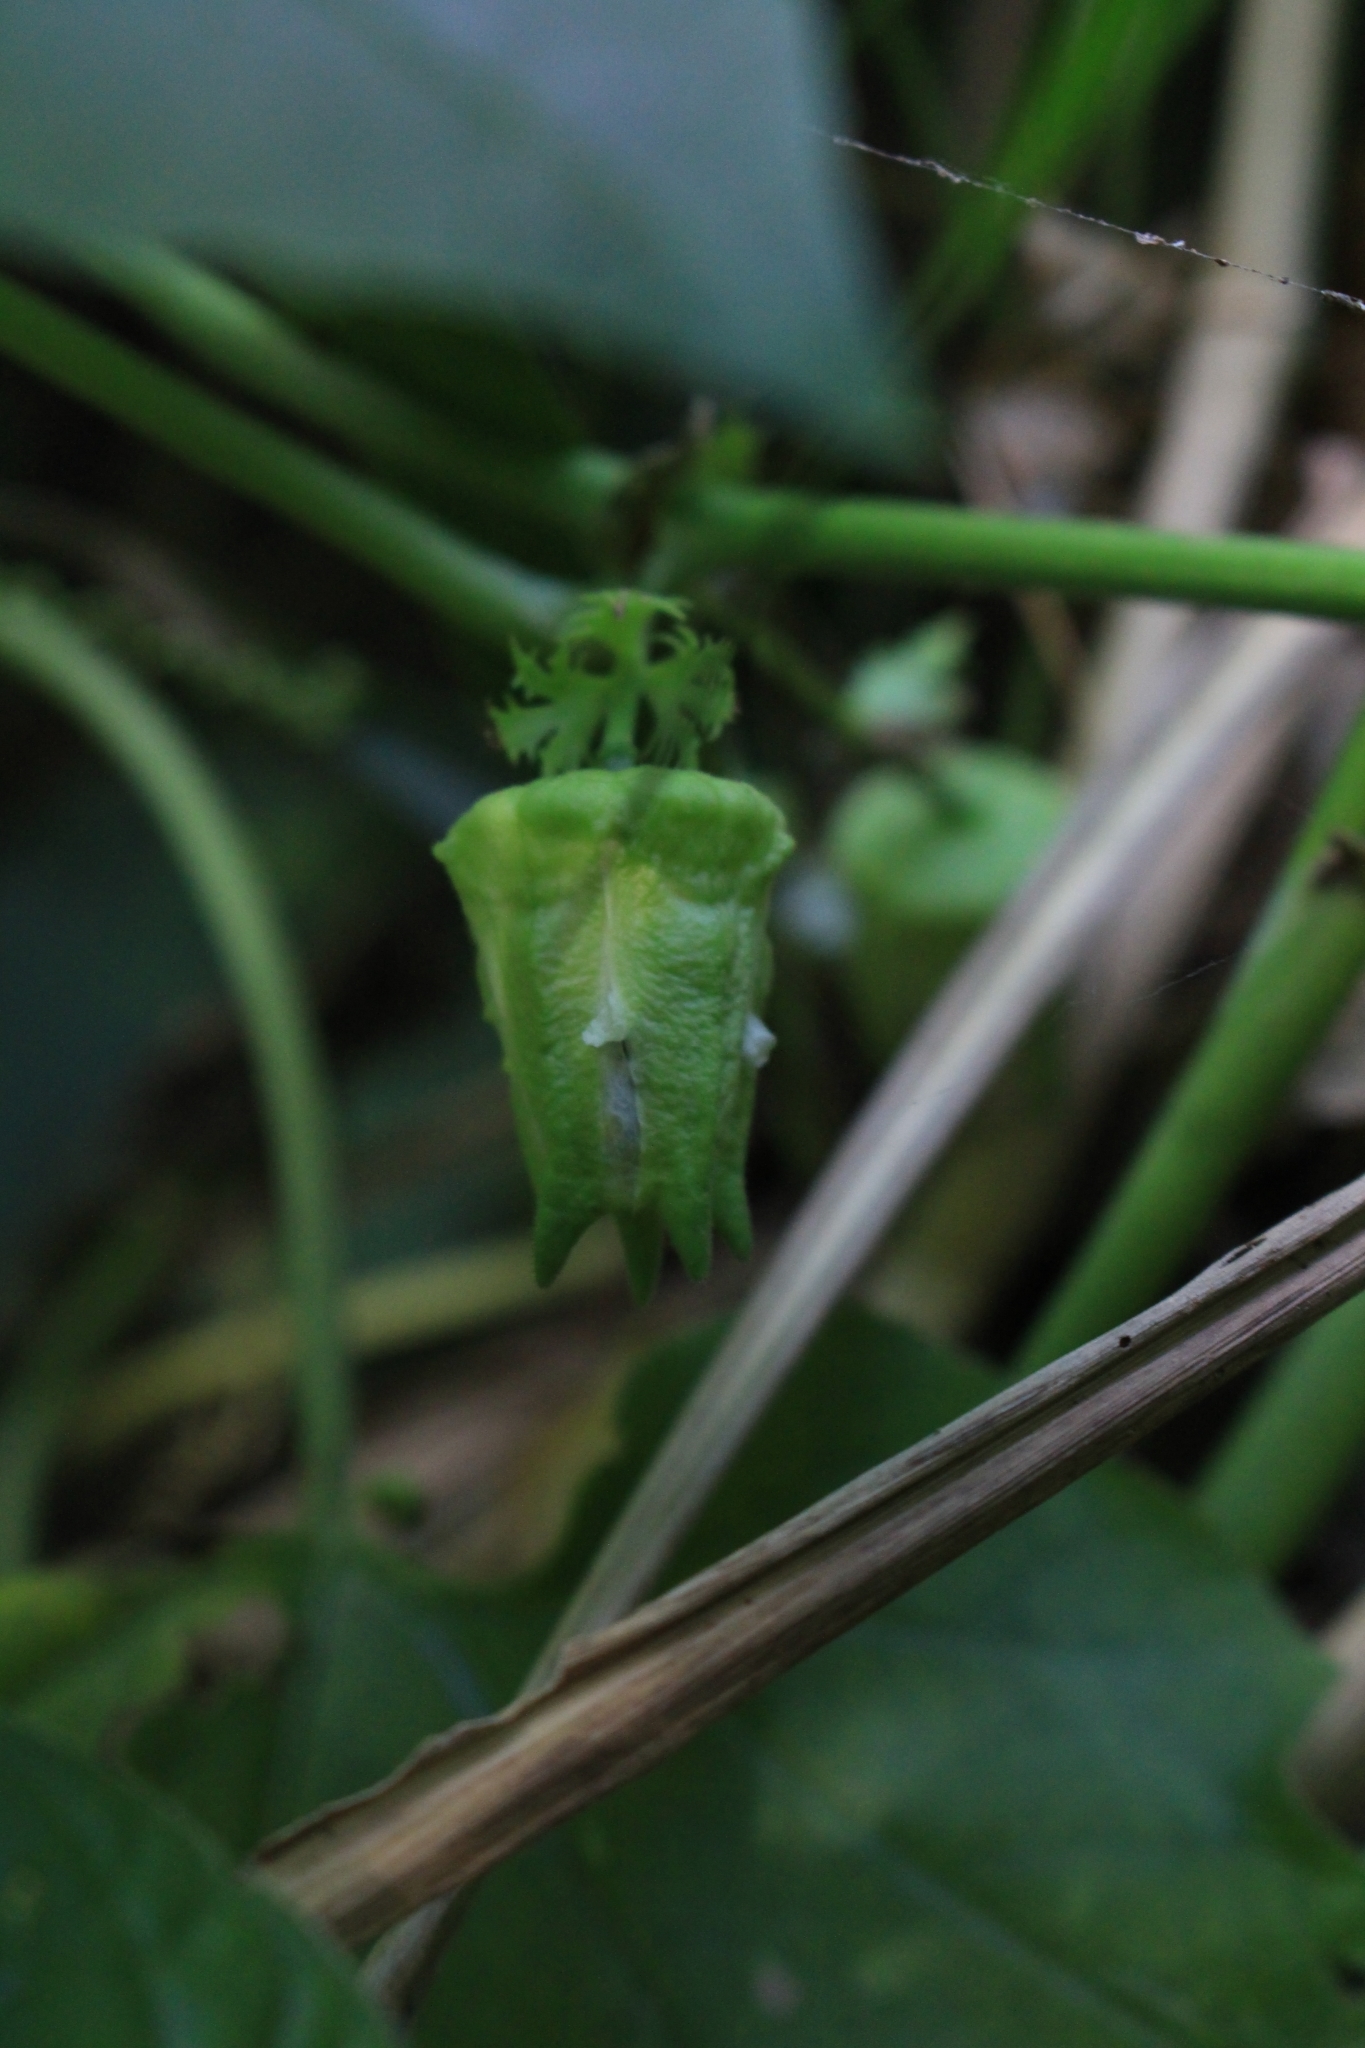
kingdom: Plantae
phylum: Tracheophyta
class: Magnoliopsida
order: Malpighiales
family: Passifloraceae
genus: Passiflora
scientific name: Passiflora adenopoda
